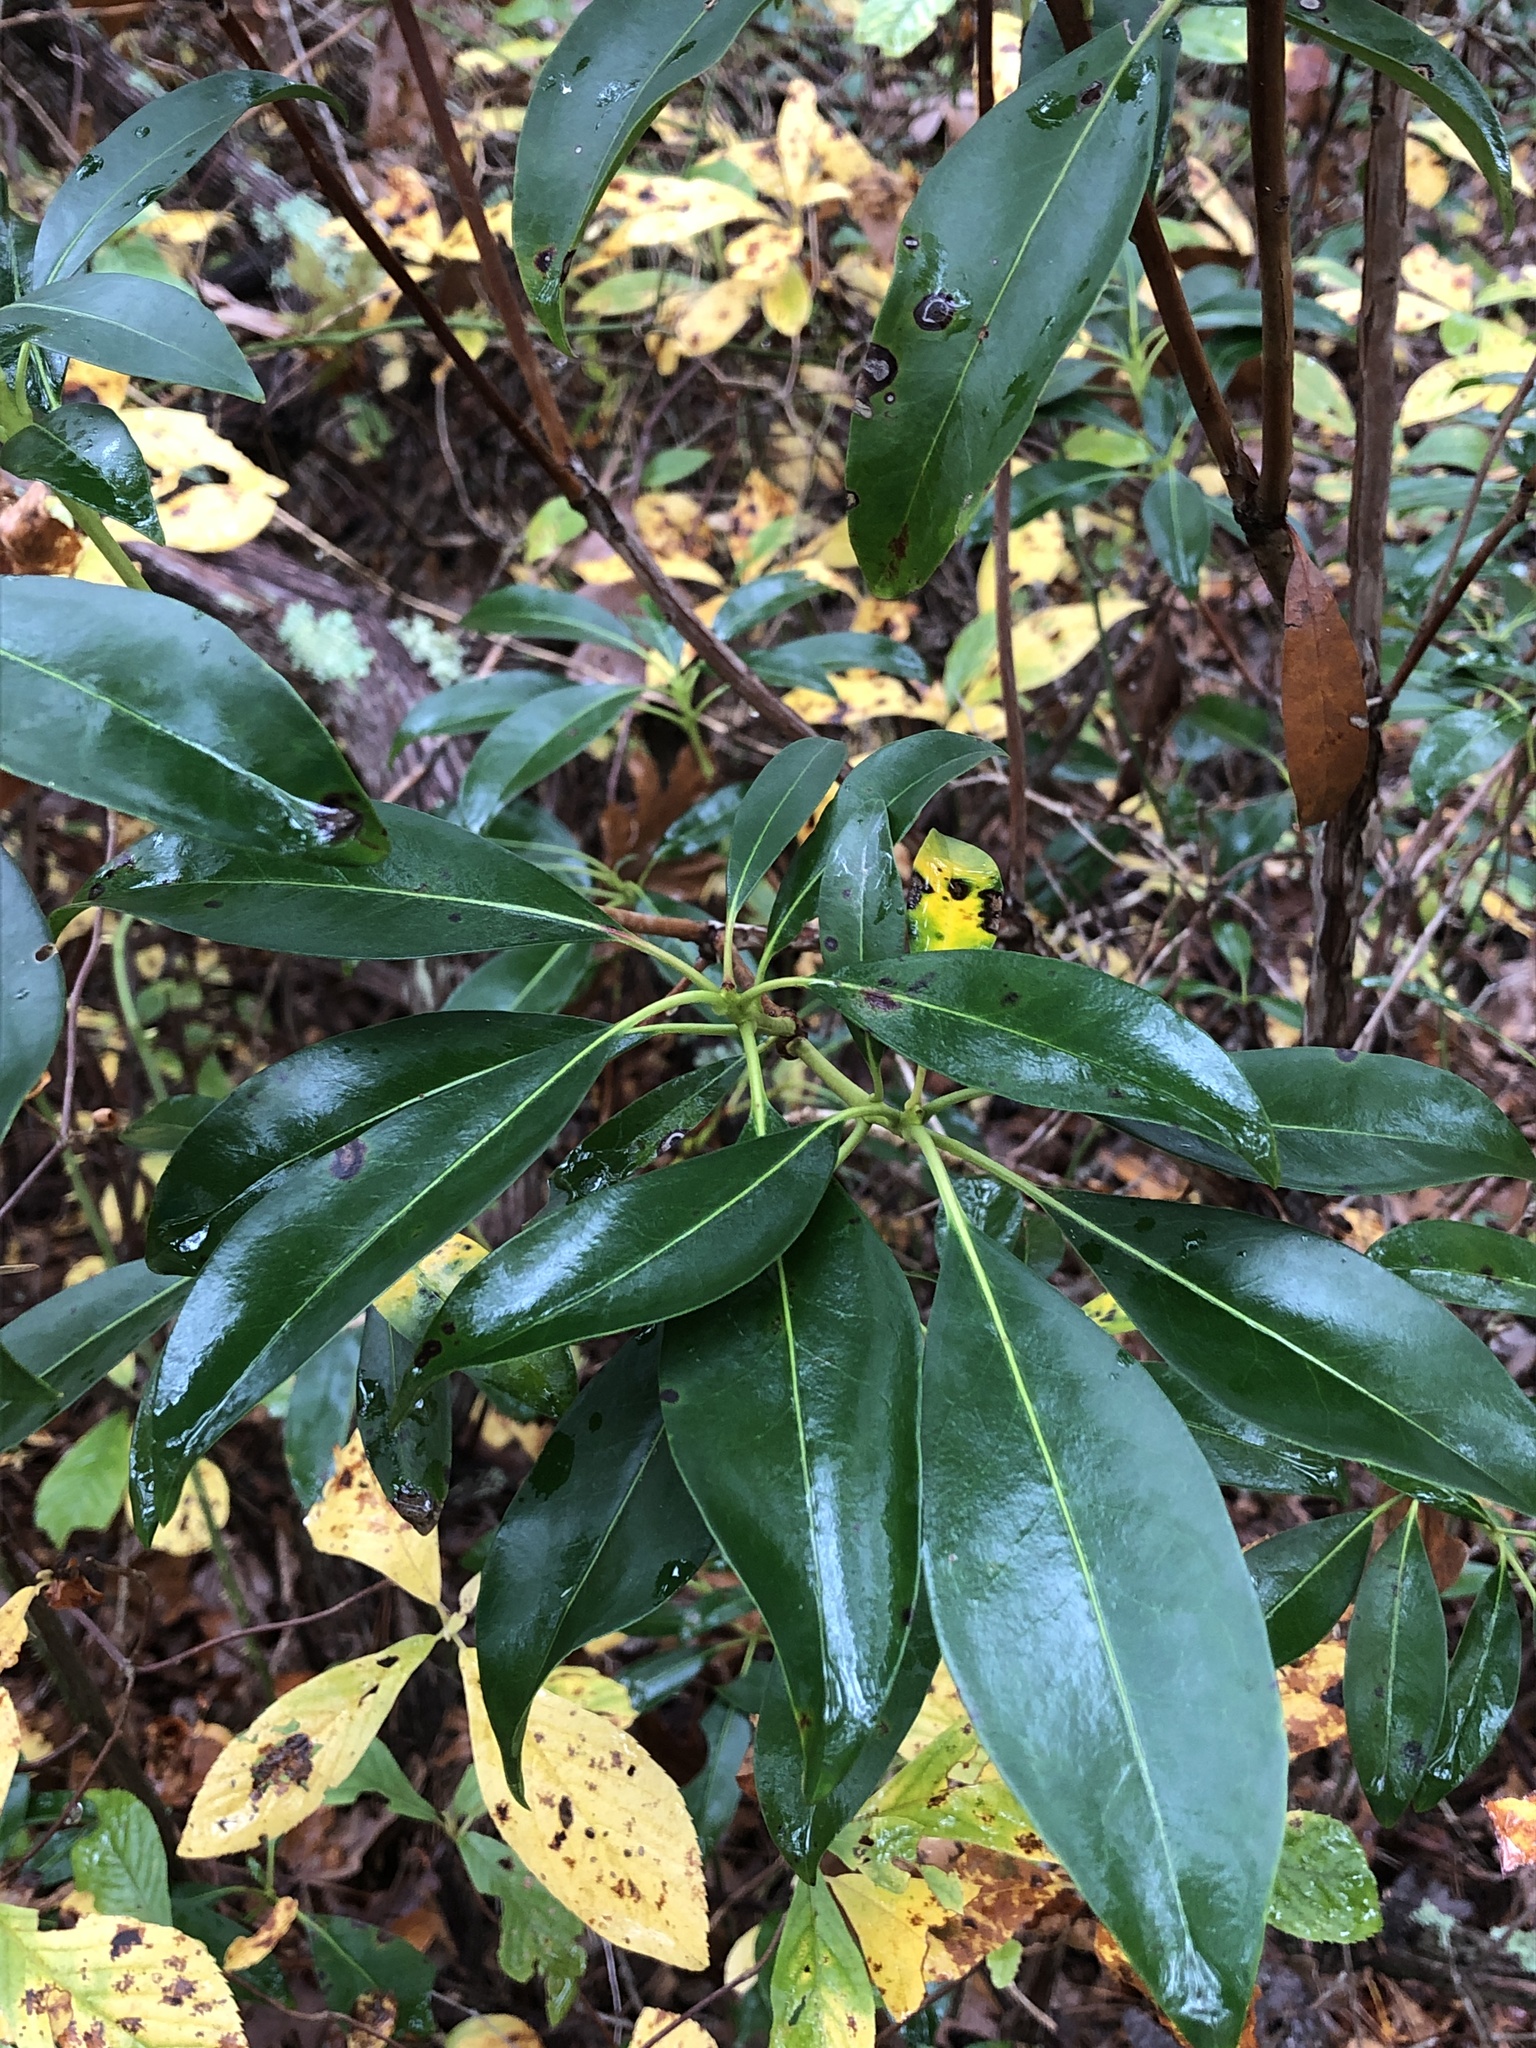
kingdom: Plantae
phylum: Tracheophyta
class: Magnoliopsida
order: Ericales
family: Ericaceae
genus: Kalmia
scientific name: Kalmia latifolia
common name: Mountain-laurel
